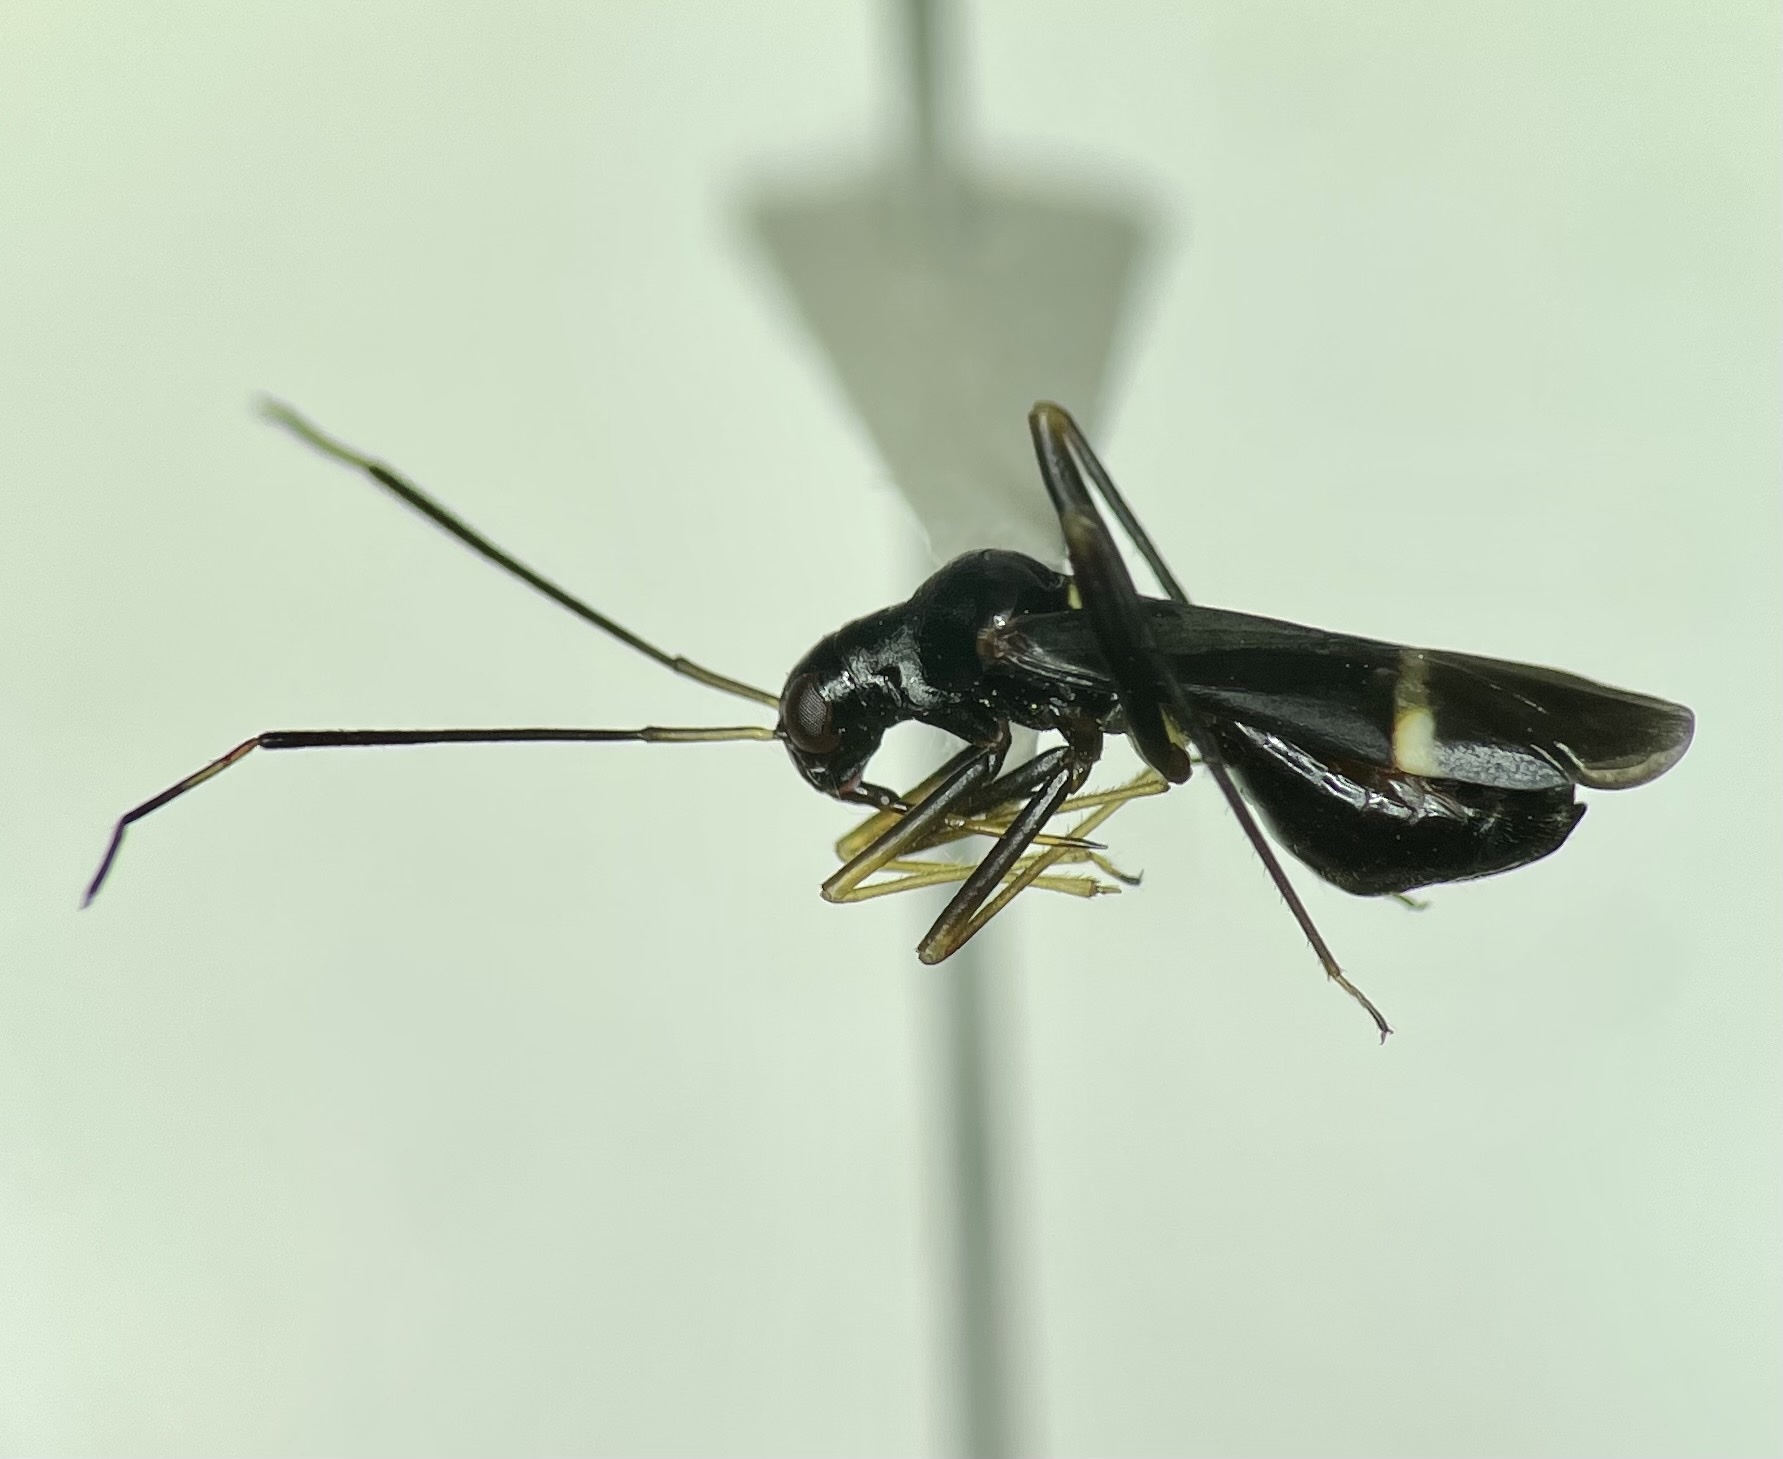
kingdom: Animalia
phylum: Arthropoda
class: Insecta
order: Hemiptera
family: Miridae
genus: Pseudoxenetus
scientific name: Pseudoxenetus regalis
